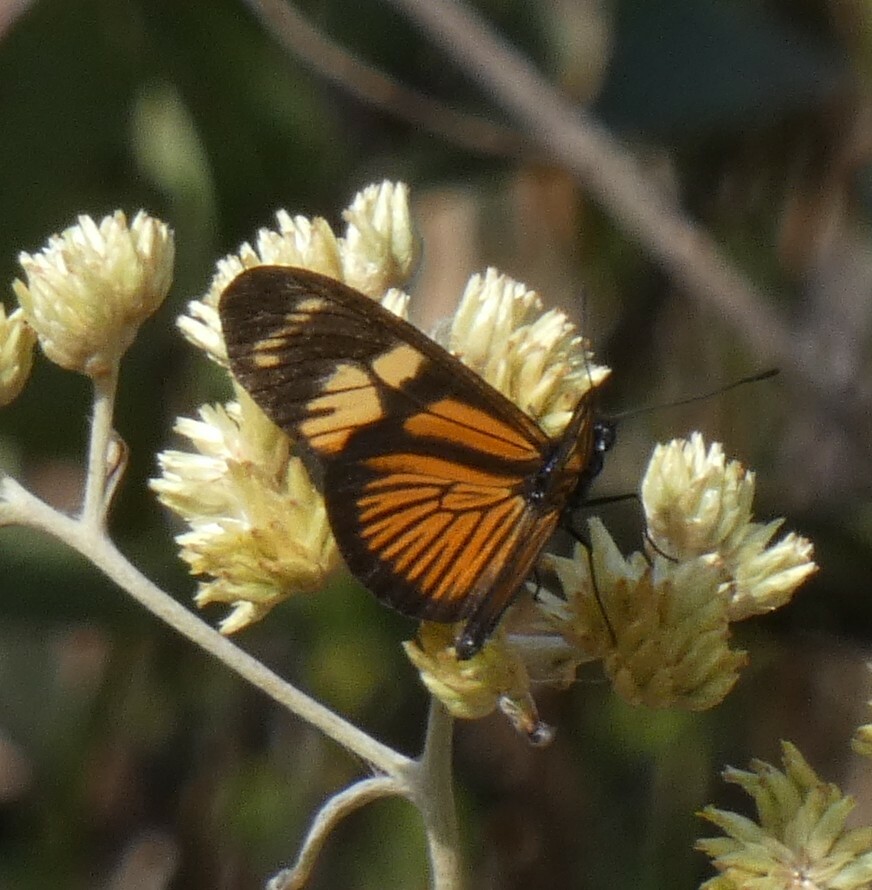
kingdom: Animalia
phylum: Arthropoda
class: Insecta
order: Lepidoptera
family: Nymphalidae
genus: Eueides
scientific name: Eueides pavana
